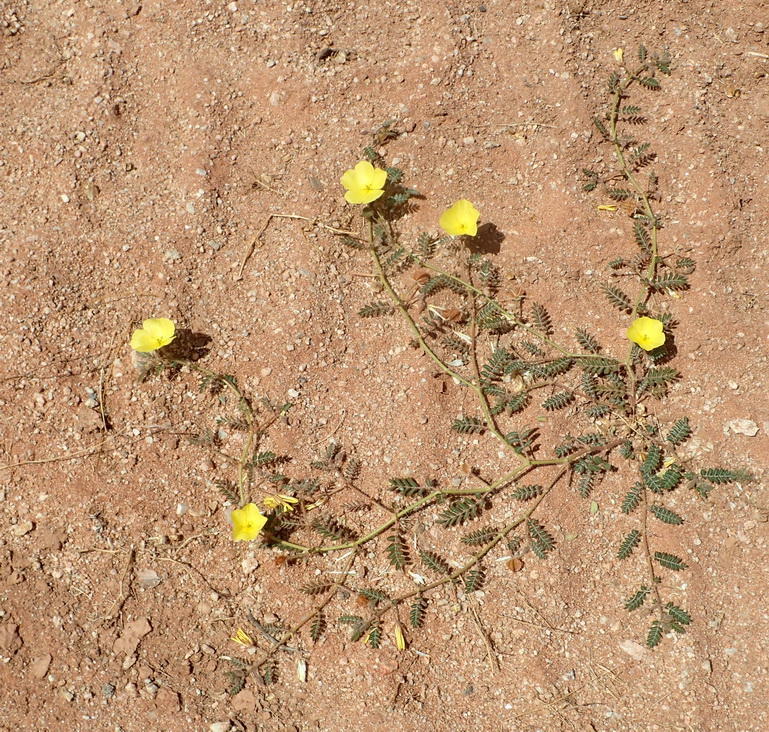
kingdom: Plantae
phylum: Tracheophyta
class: Magnoliopsida
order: Zygophyllales
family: Zygophyllaceae
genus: Tribulus
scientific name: Tribulus cristatus
